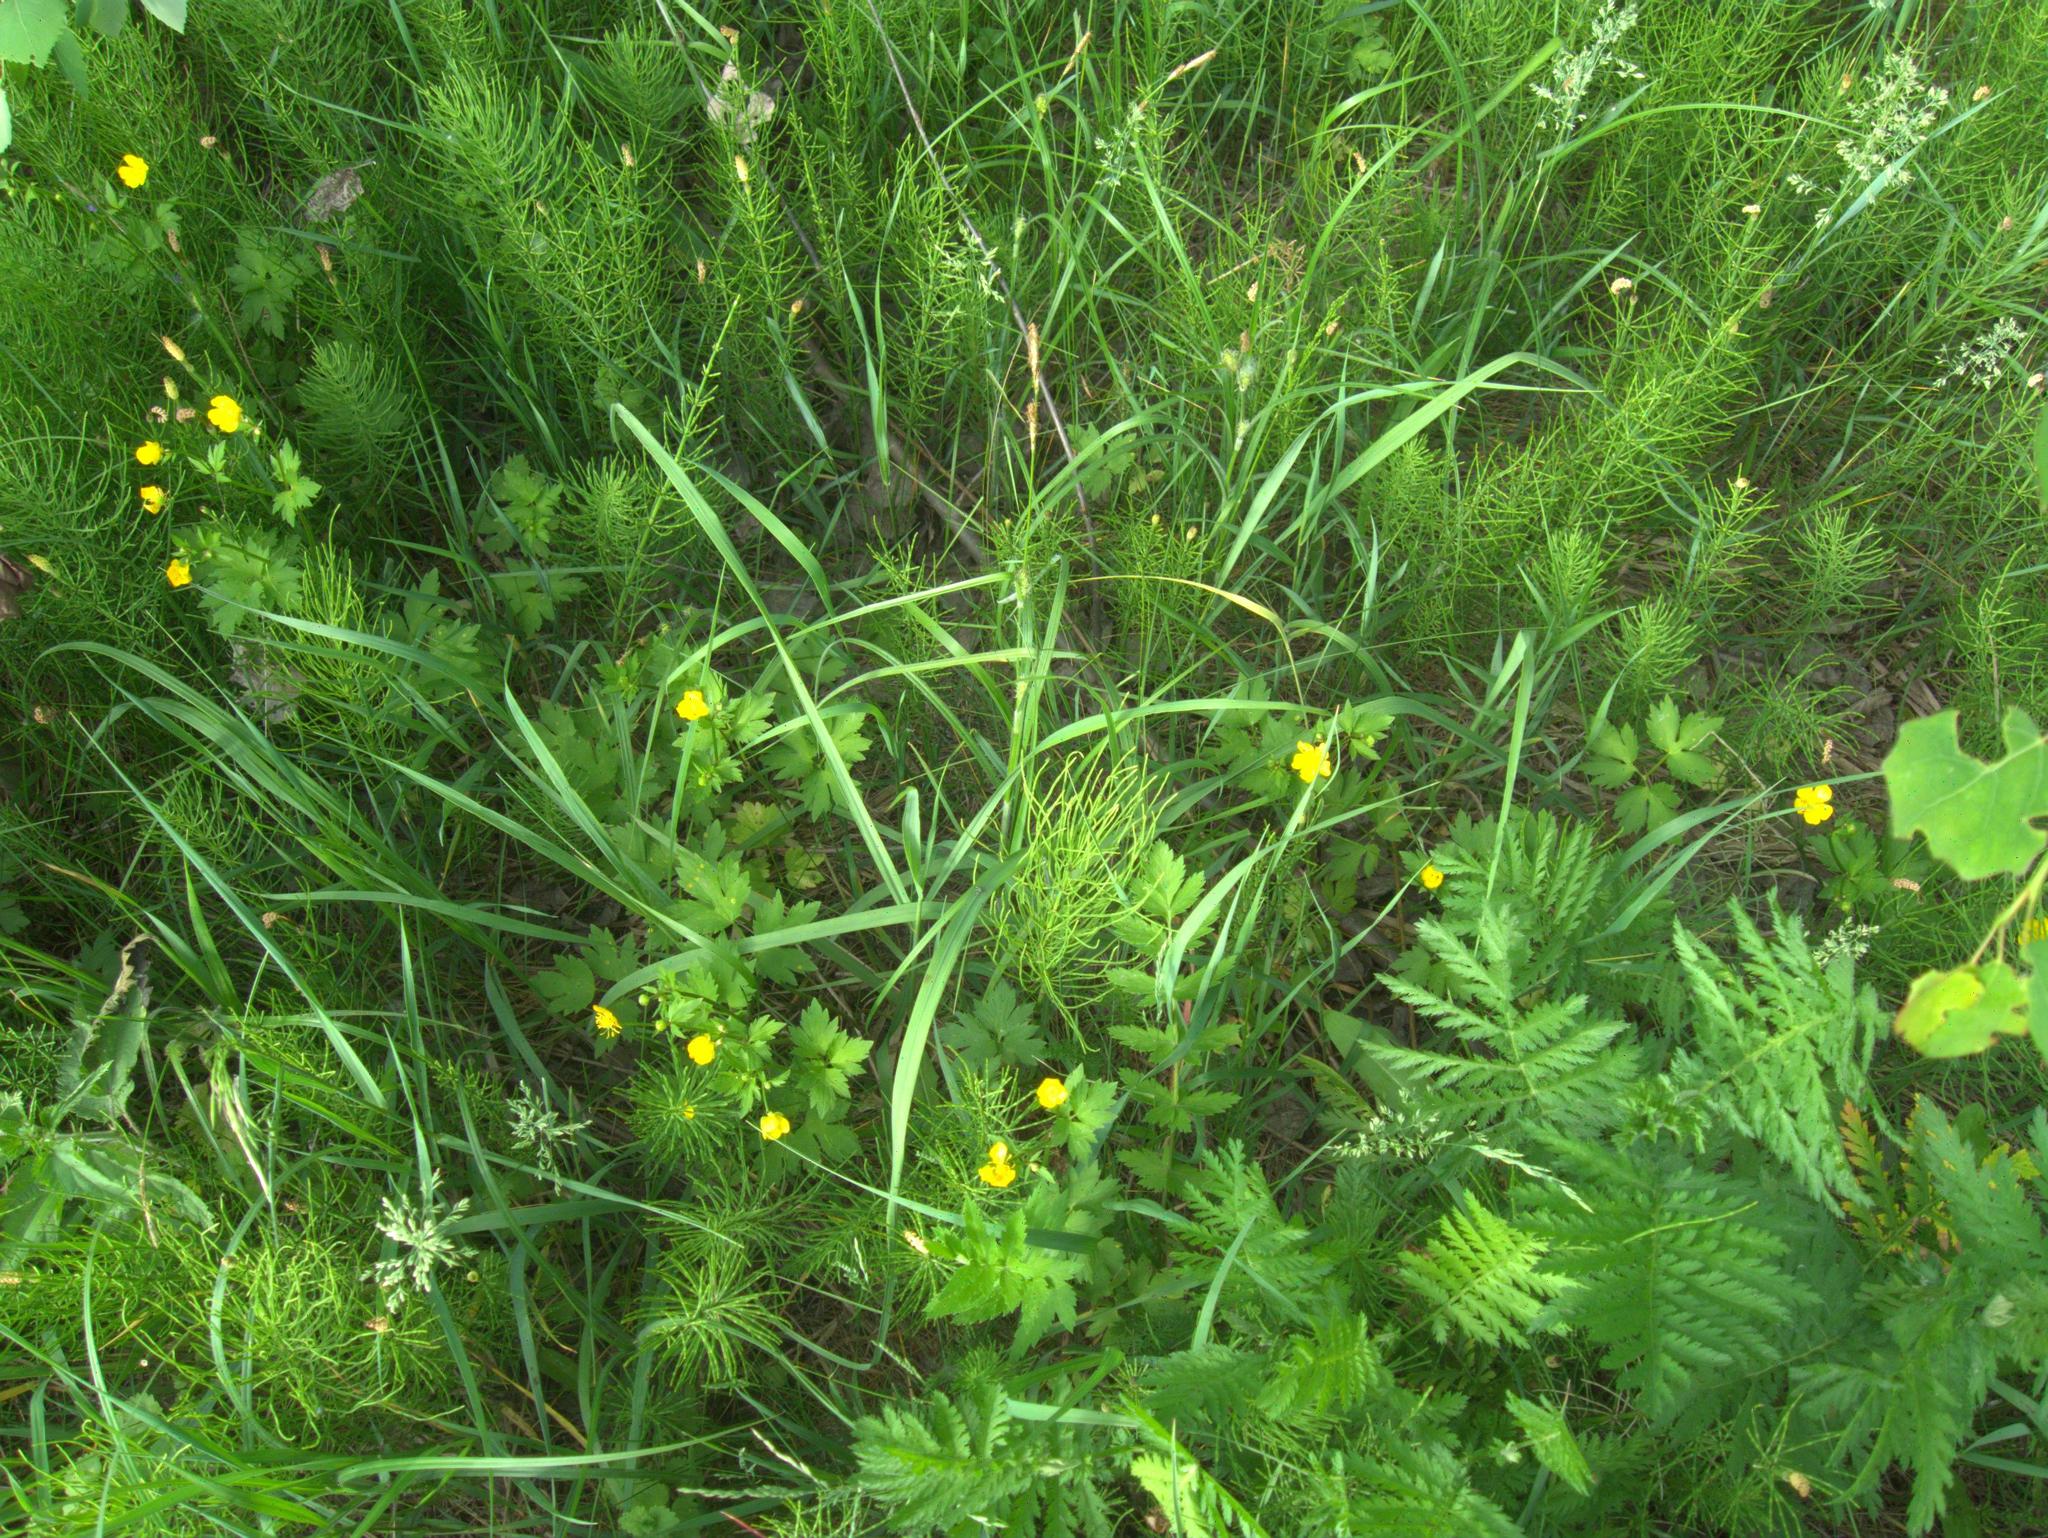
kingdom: Plantae
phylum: Tracheophyta
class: Magnoliopsida
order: Apiales
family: Apiaceae
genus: Pastinaca
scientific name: Pastinaca sativa
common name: Wild parsnip
